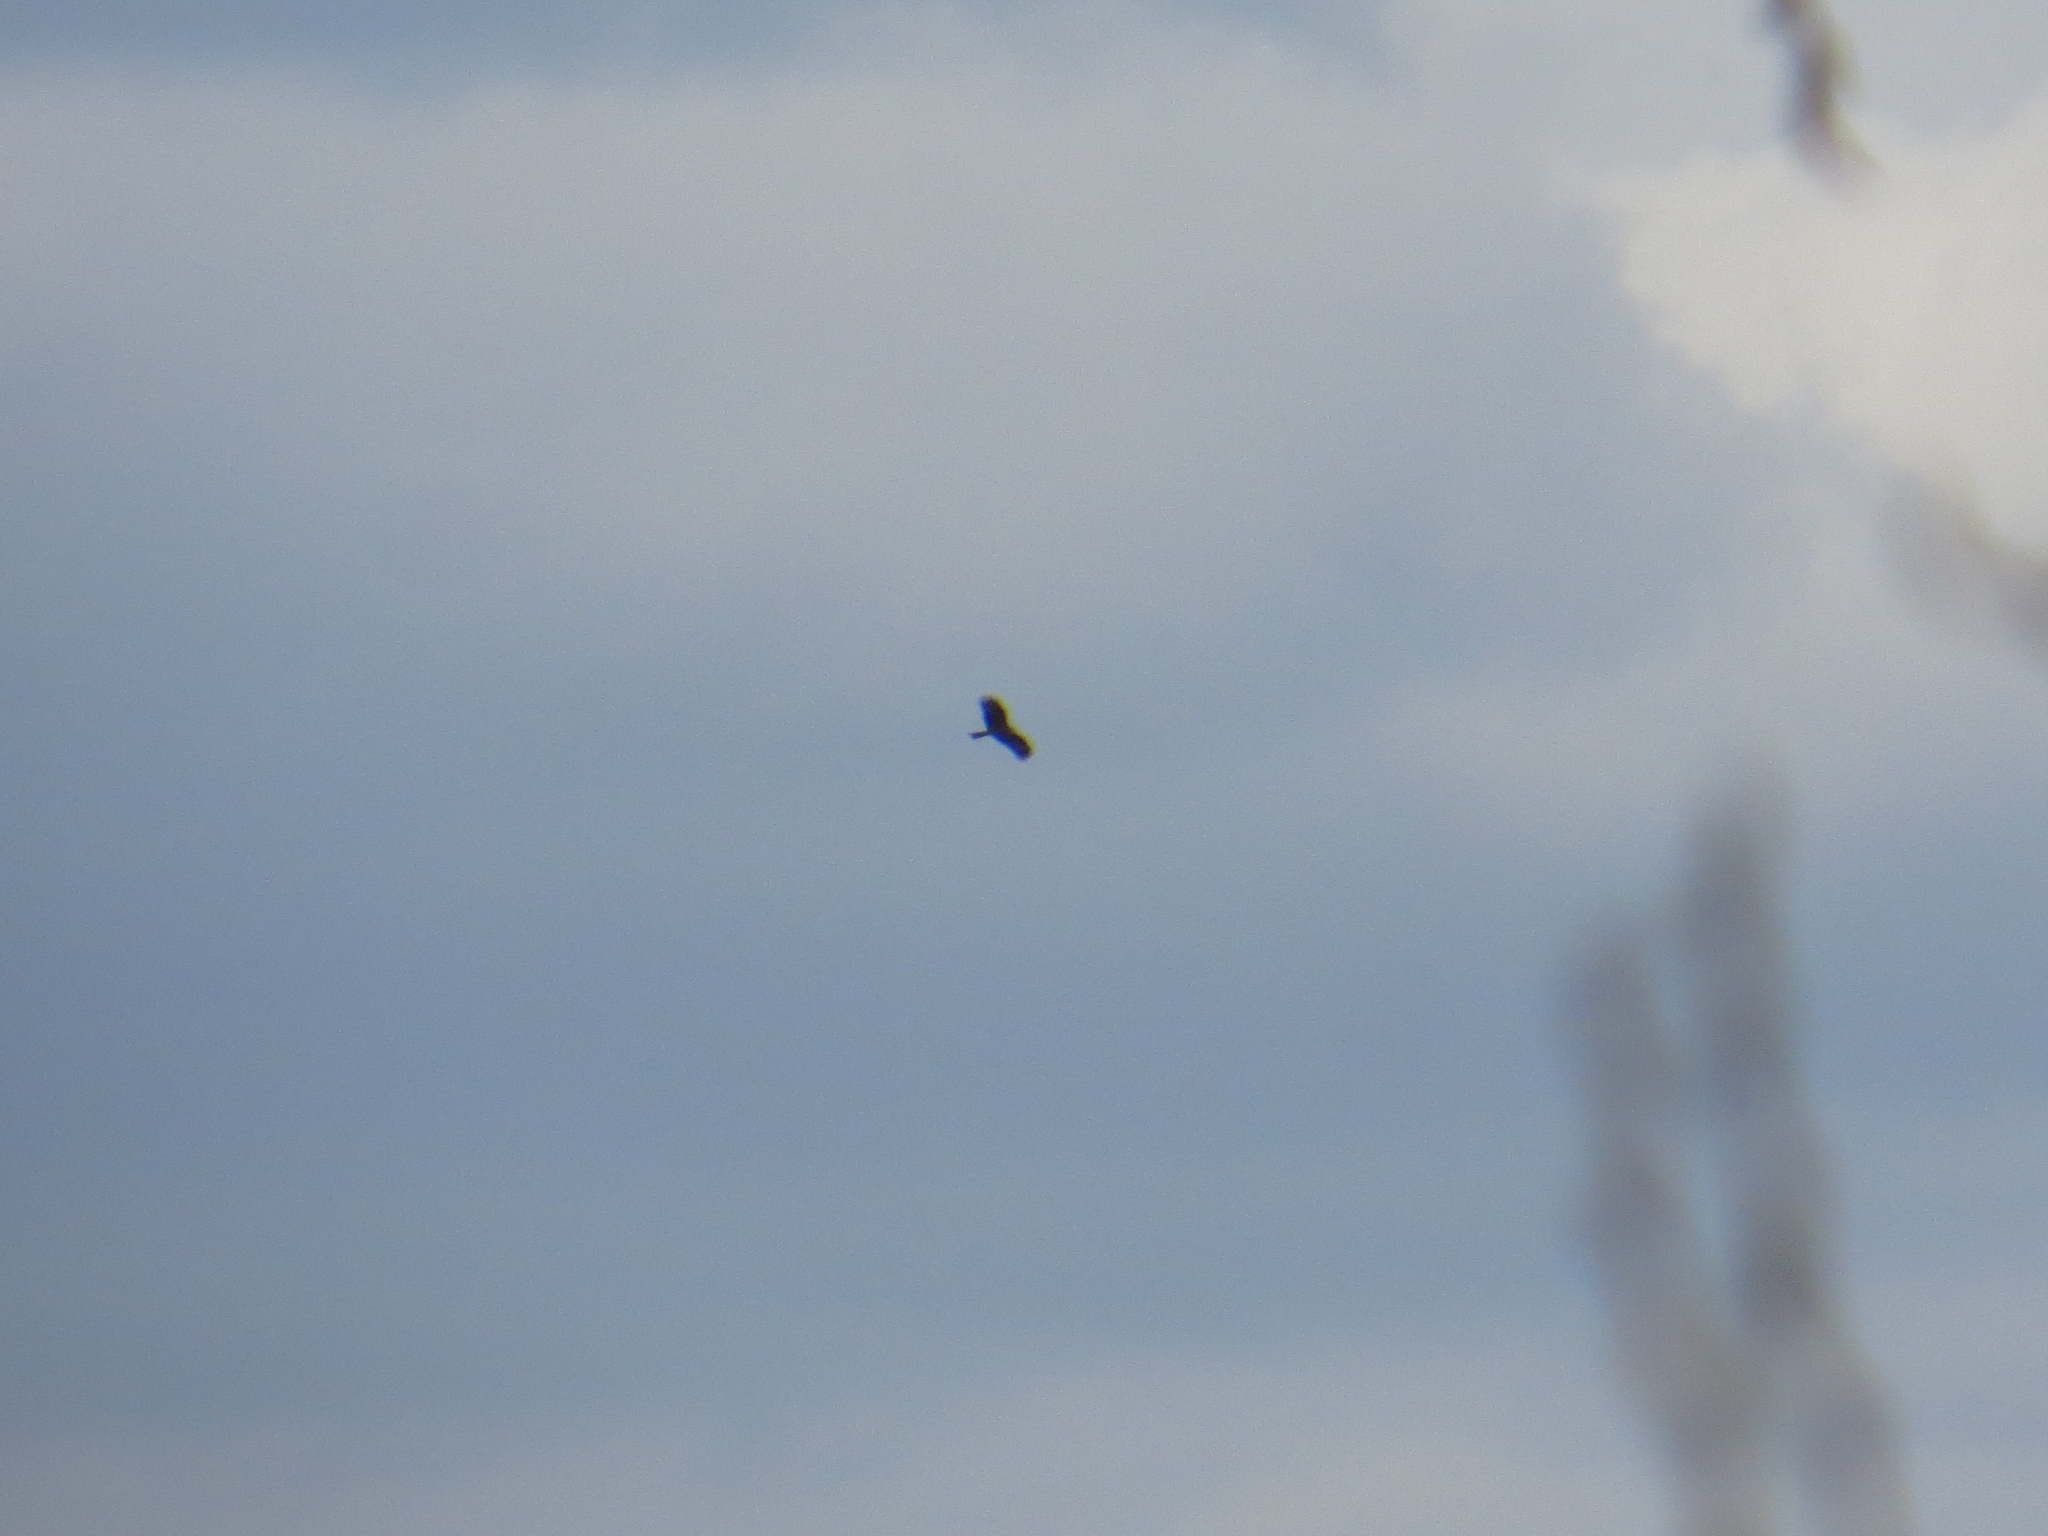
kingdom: Animalia
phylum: Chordata
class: Aves
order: Accipitriformes
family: Accipitridae
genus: Milvus
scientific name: Milvus migrans
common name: Black kite
